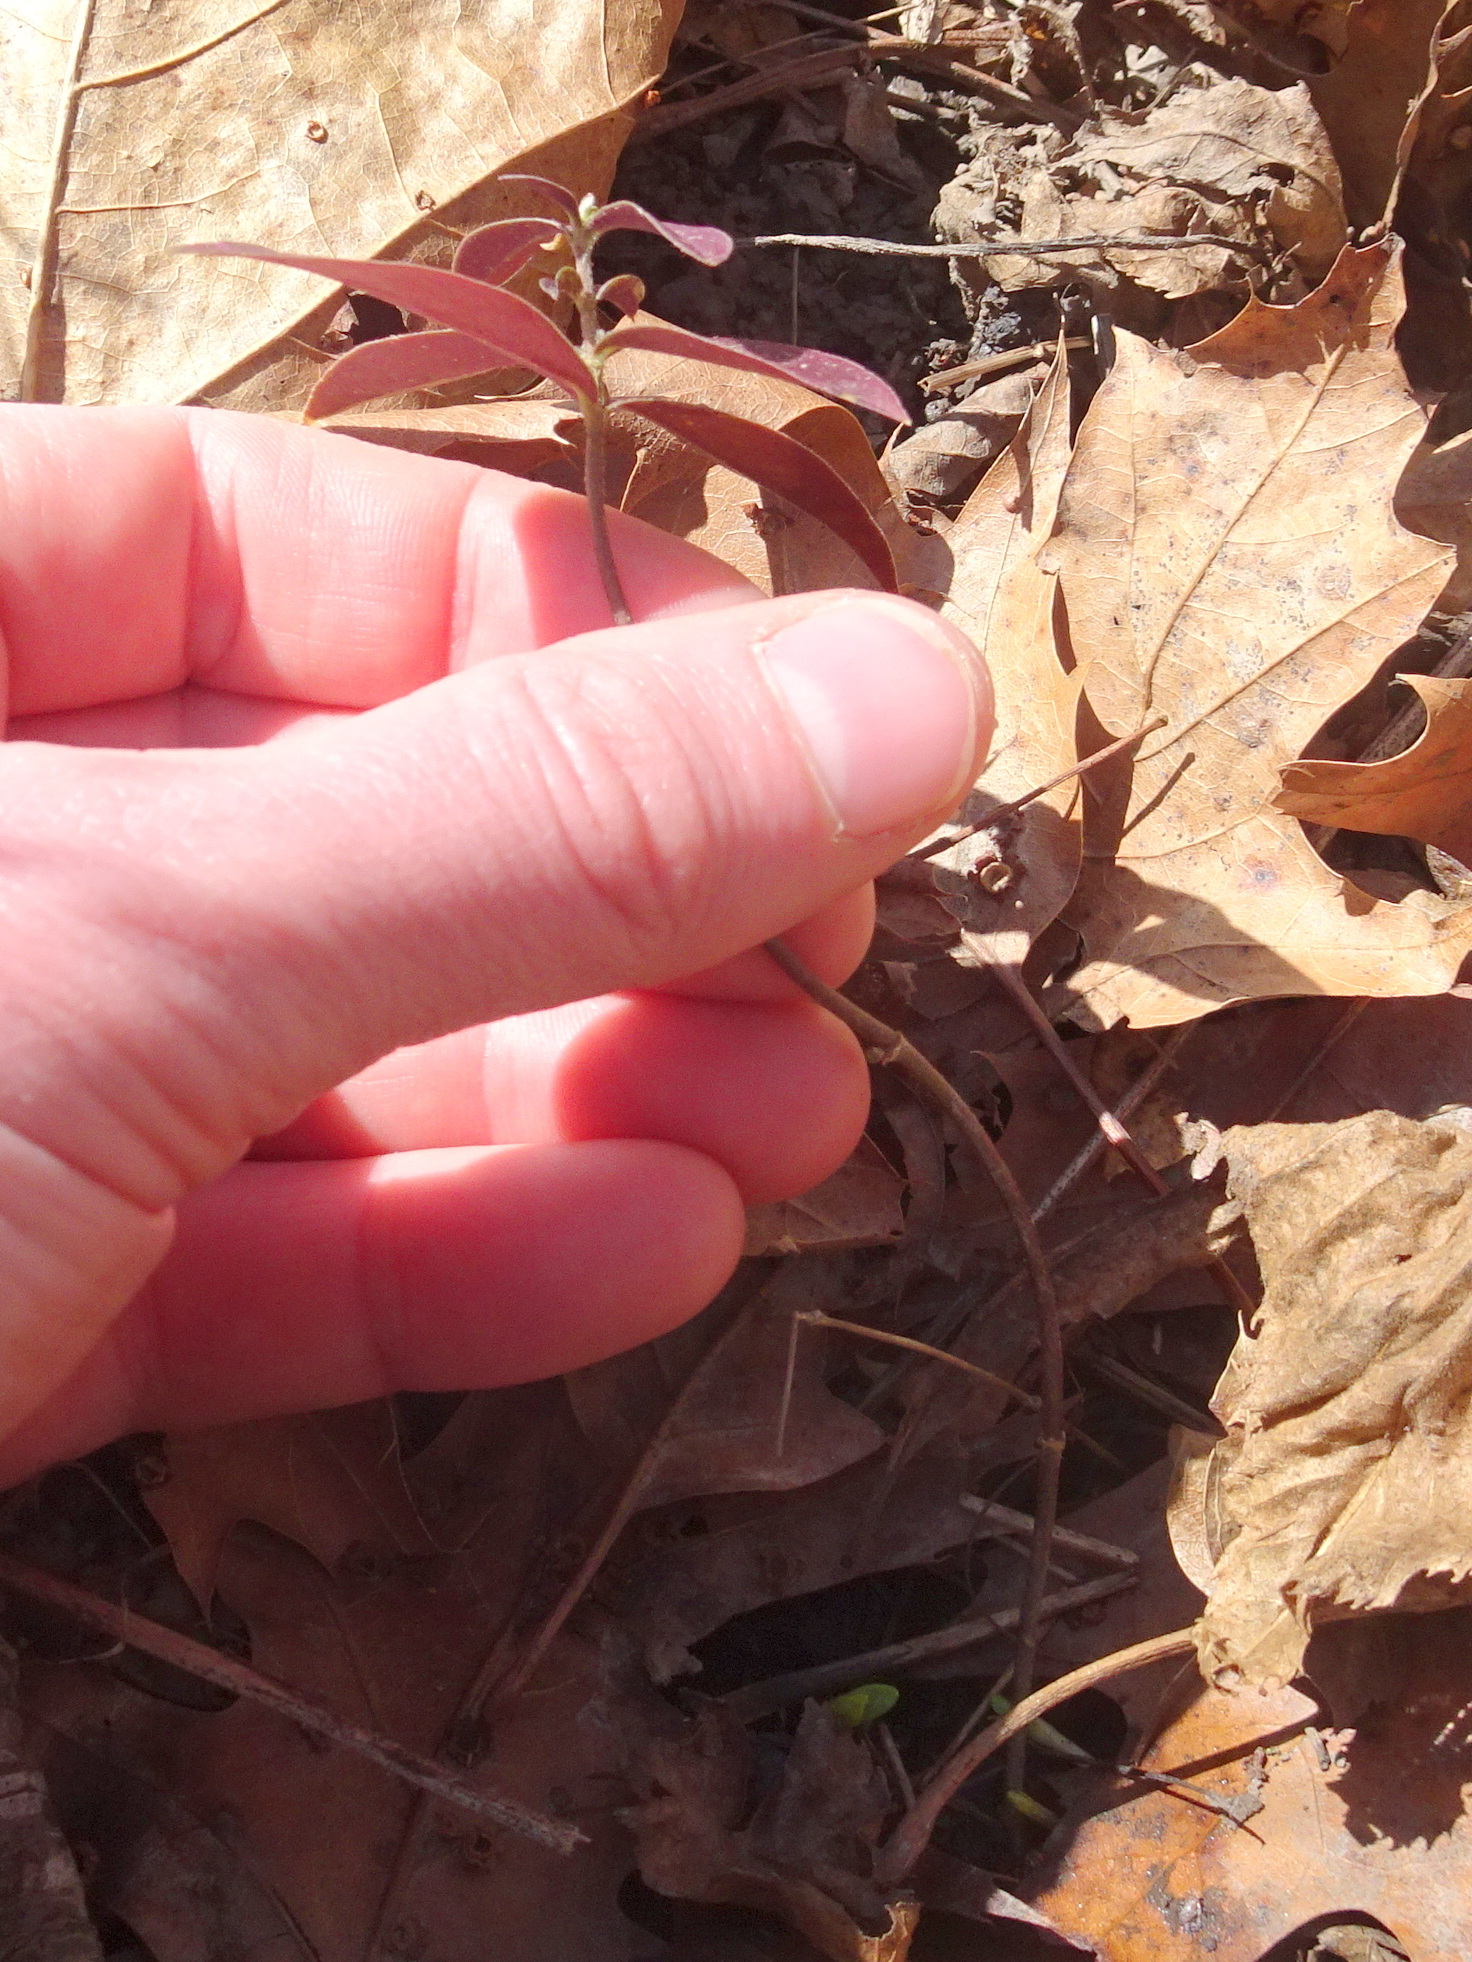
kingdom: Plantae
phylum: Tracheophyta
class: Magnoliopsida
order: Ericales
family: Polemoniaceae
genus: Phlox
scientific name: Phlox divaricata
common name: Blue phlox
